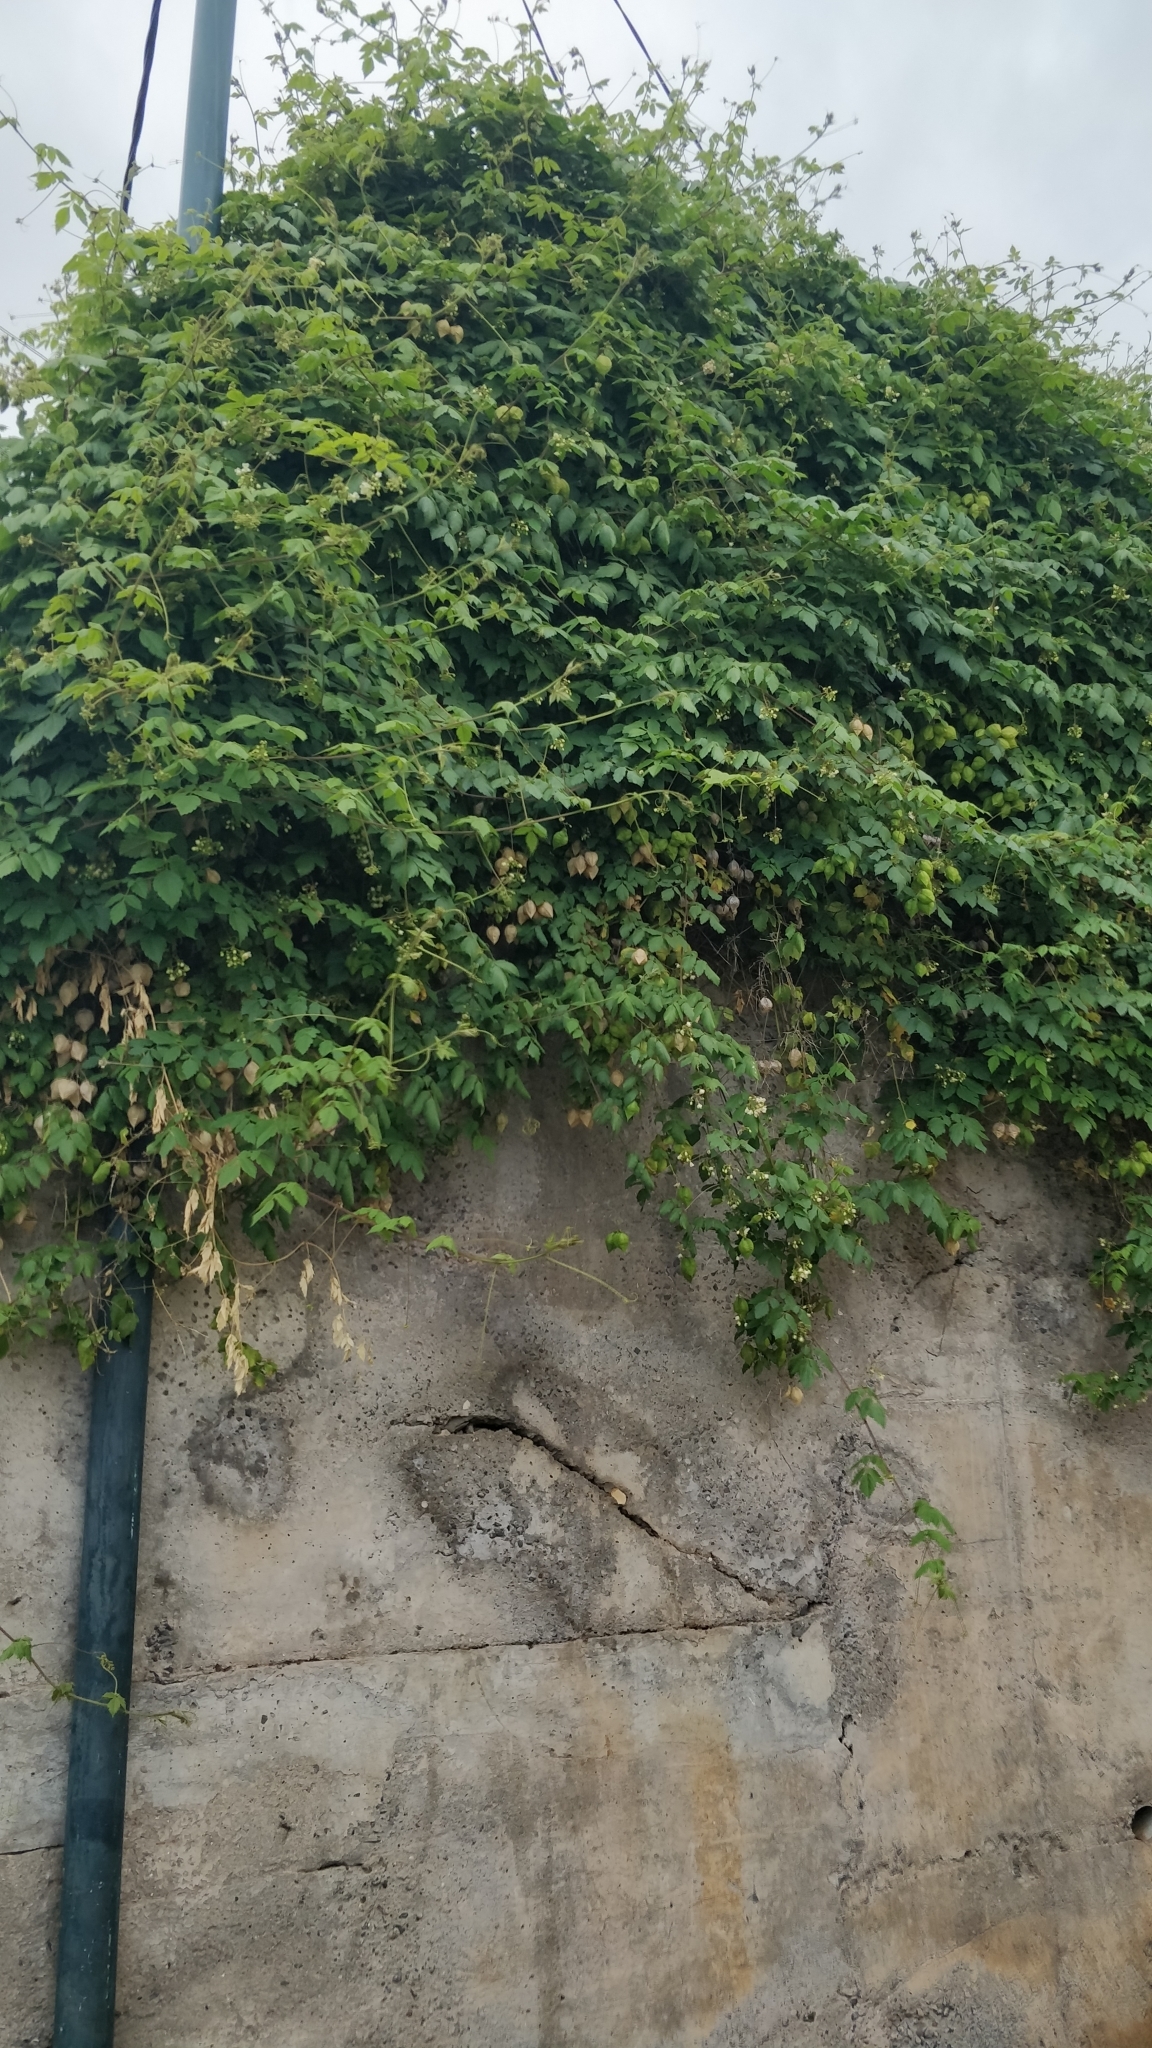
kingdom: Plantae
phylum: Tracheophyta
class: Magnoliopsida
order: Sapindales
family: Sapindaceae
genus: Cardiospermum
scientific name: Cardiospermum grandiflorum
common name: Balloon vine
